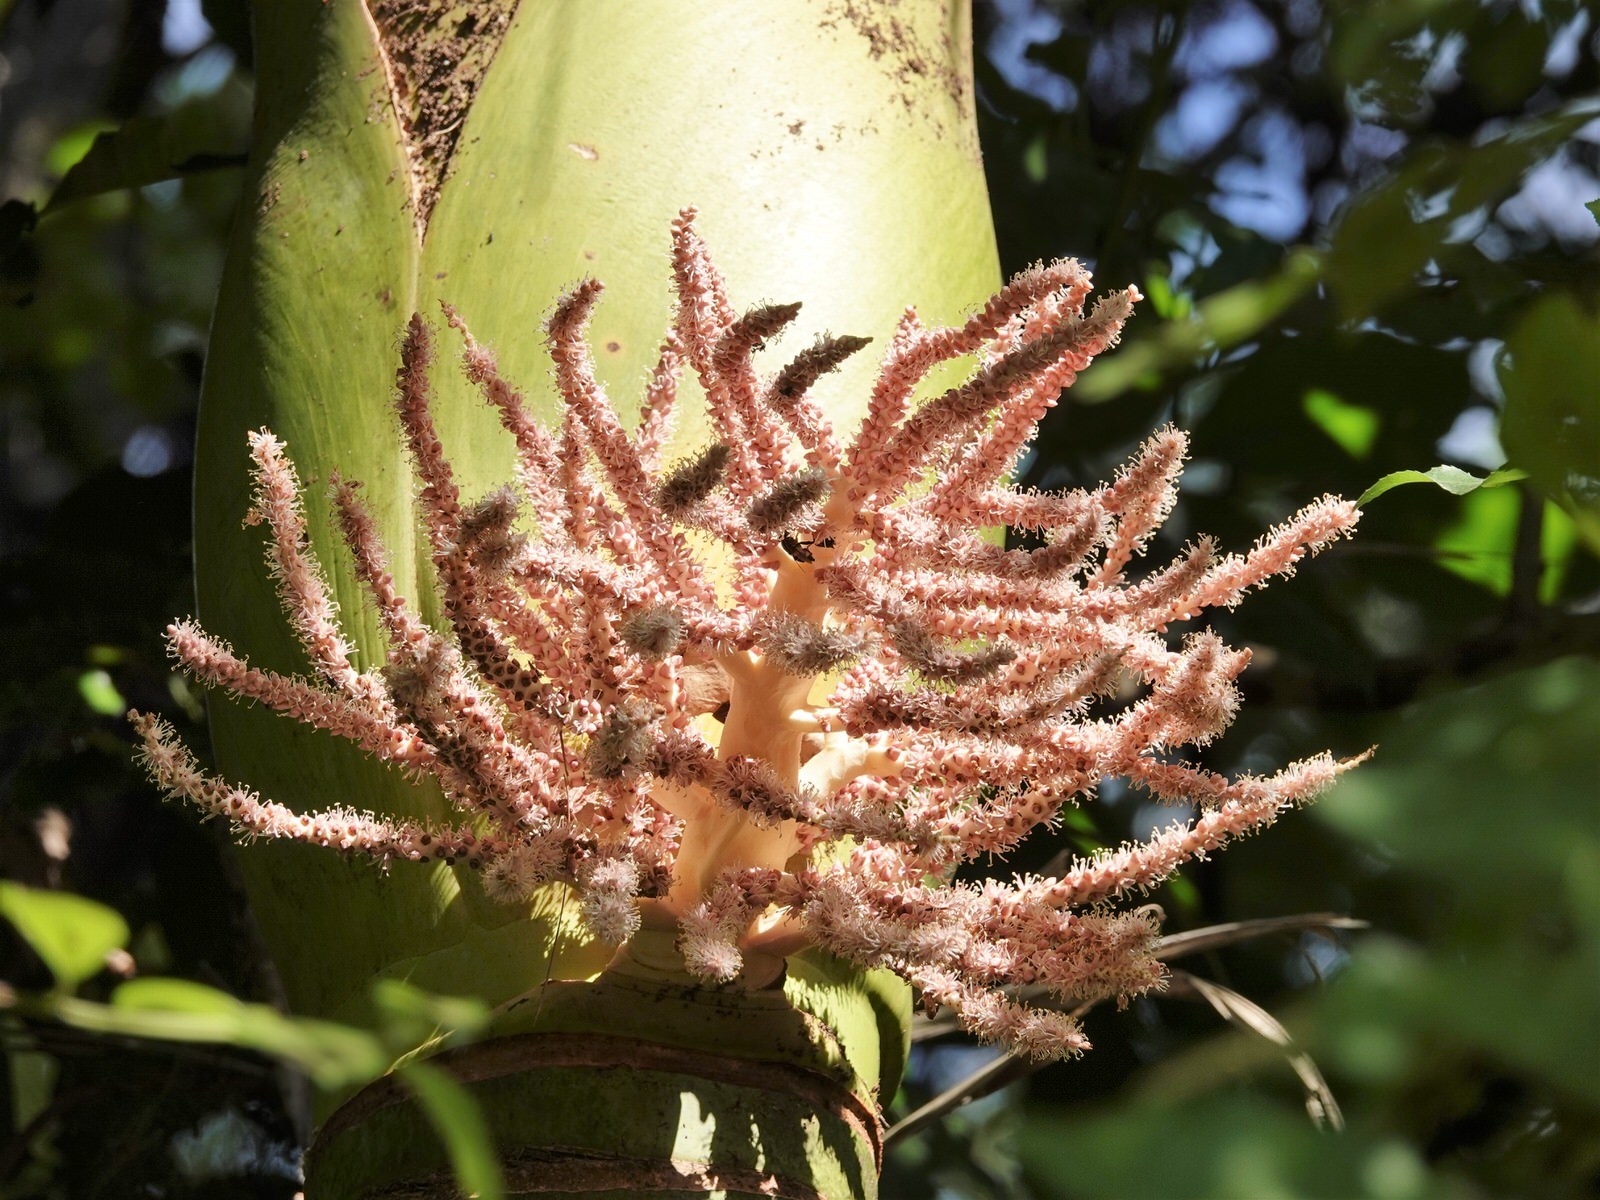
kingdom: Plantae
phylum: Tracheophyta
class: Liliopsida
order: Arecales
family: Arecaceae
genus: Rhopalostylis
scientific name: Rhopalostylis sapida
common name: Feather-duster palm
